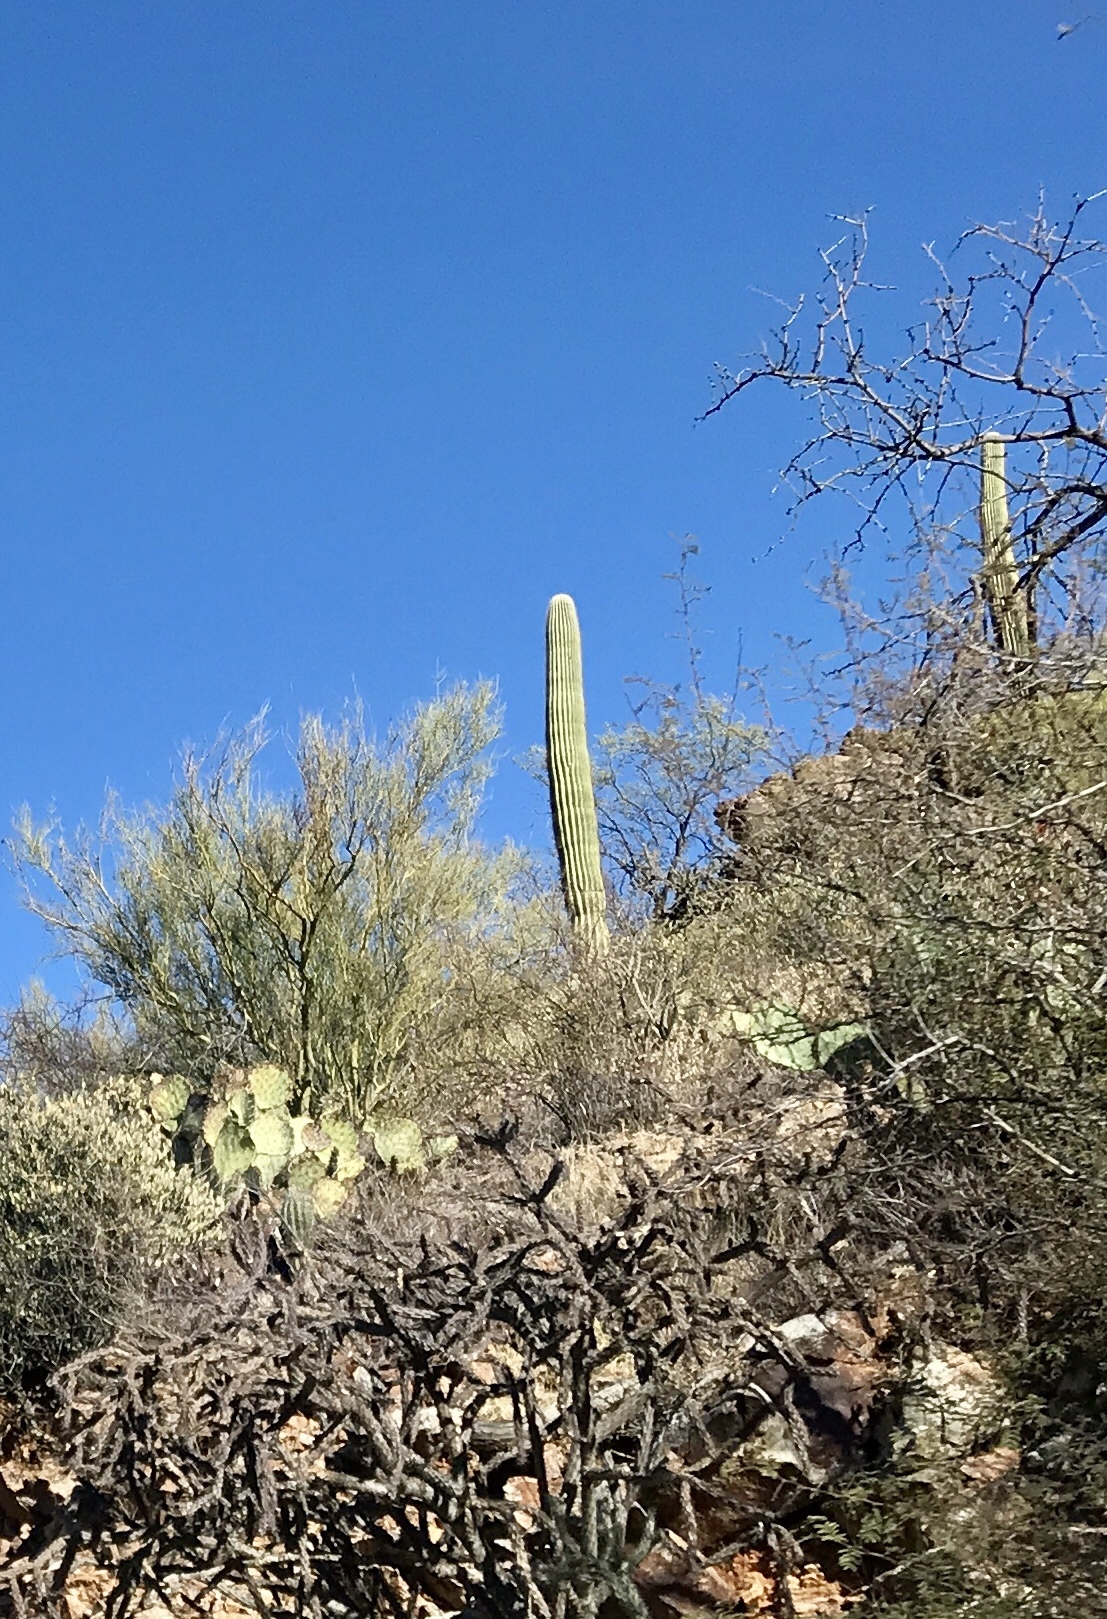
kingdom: Plantae
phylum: Tracheophyta
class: Magnoliopsida
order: Caryophyllales
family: Cactaceae
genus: Carnegiea
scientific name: Carnegiea gigantea
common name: Saguaro
